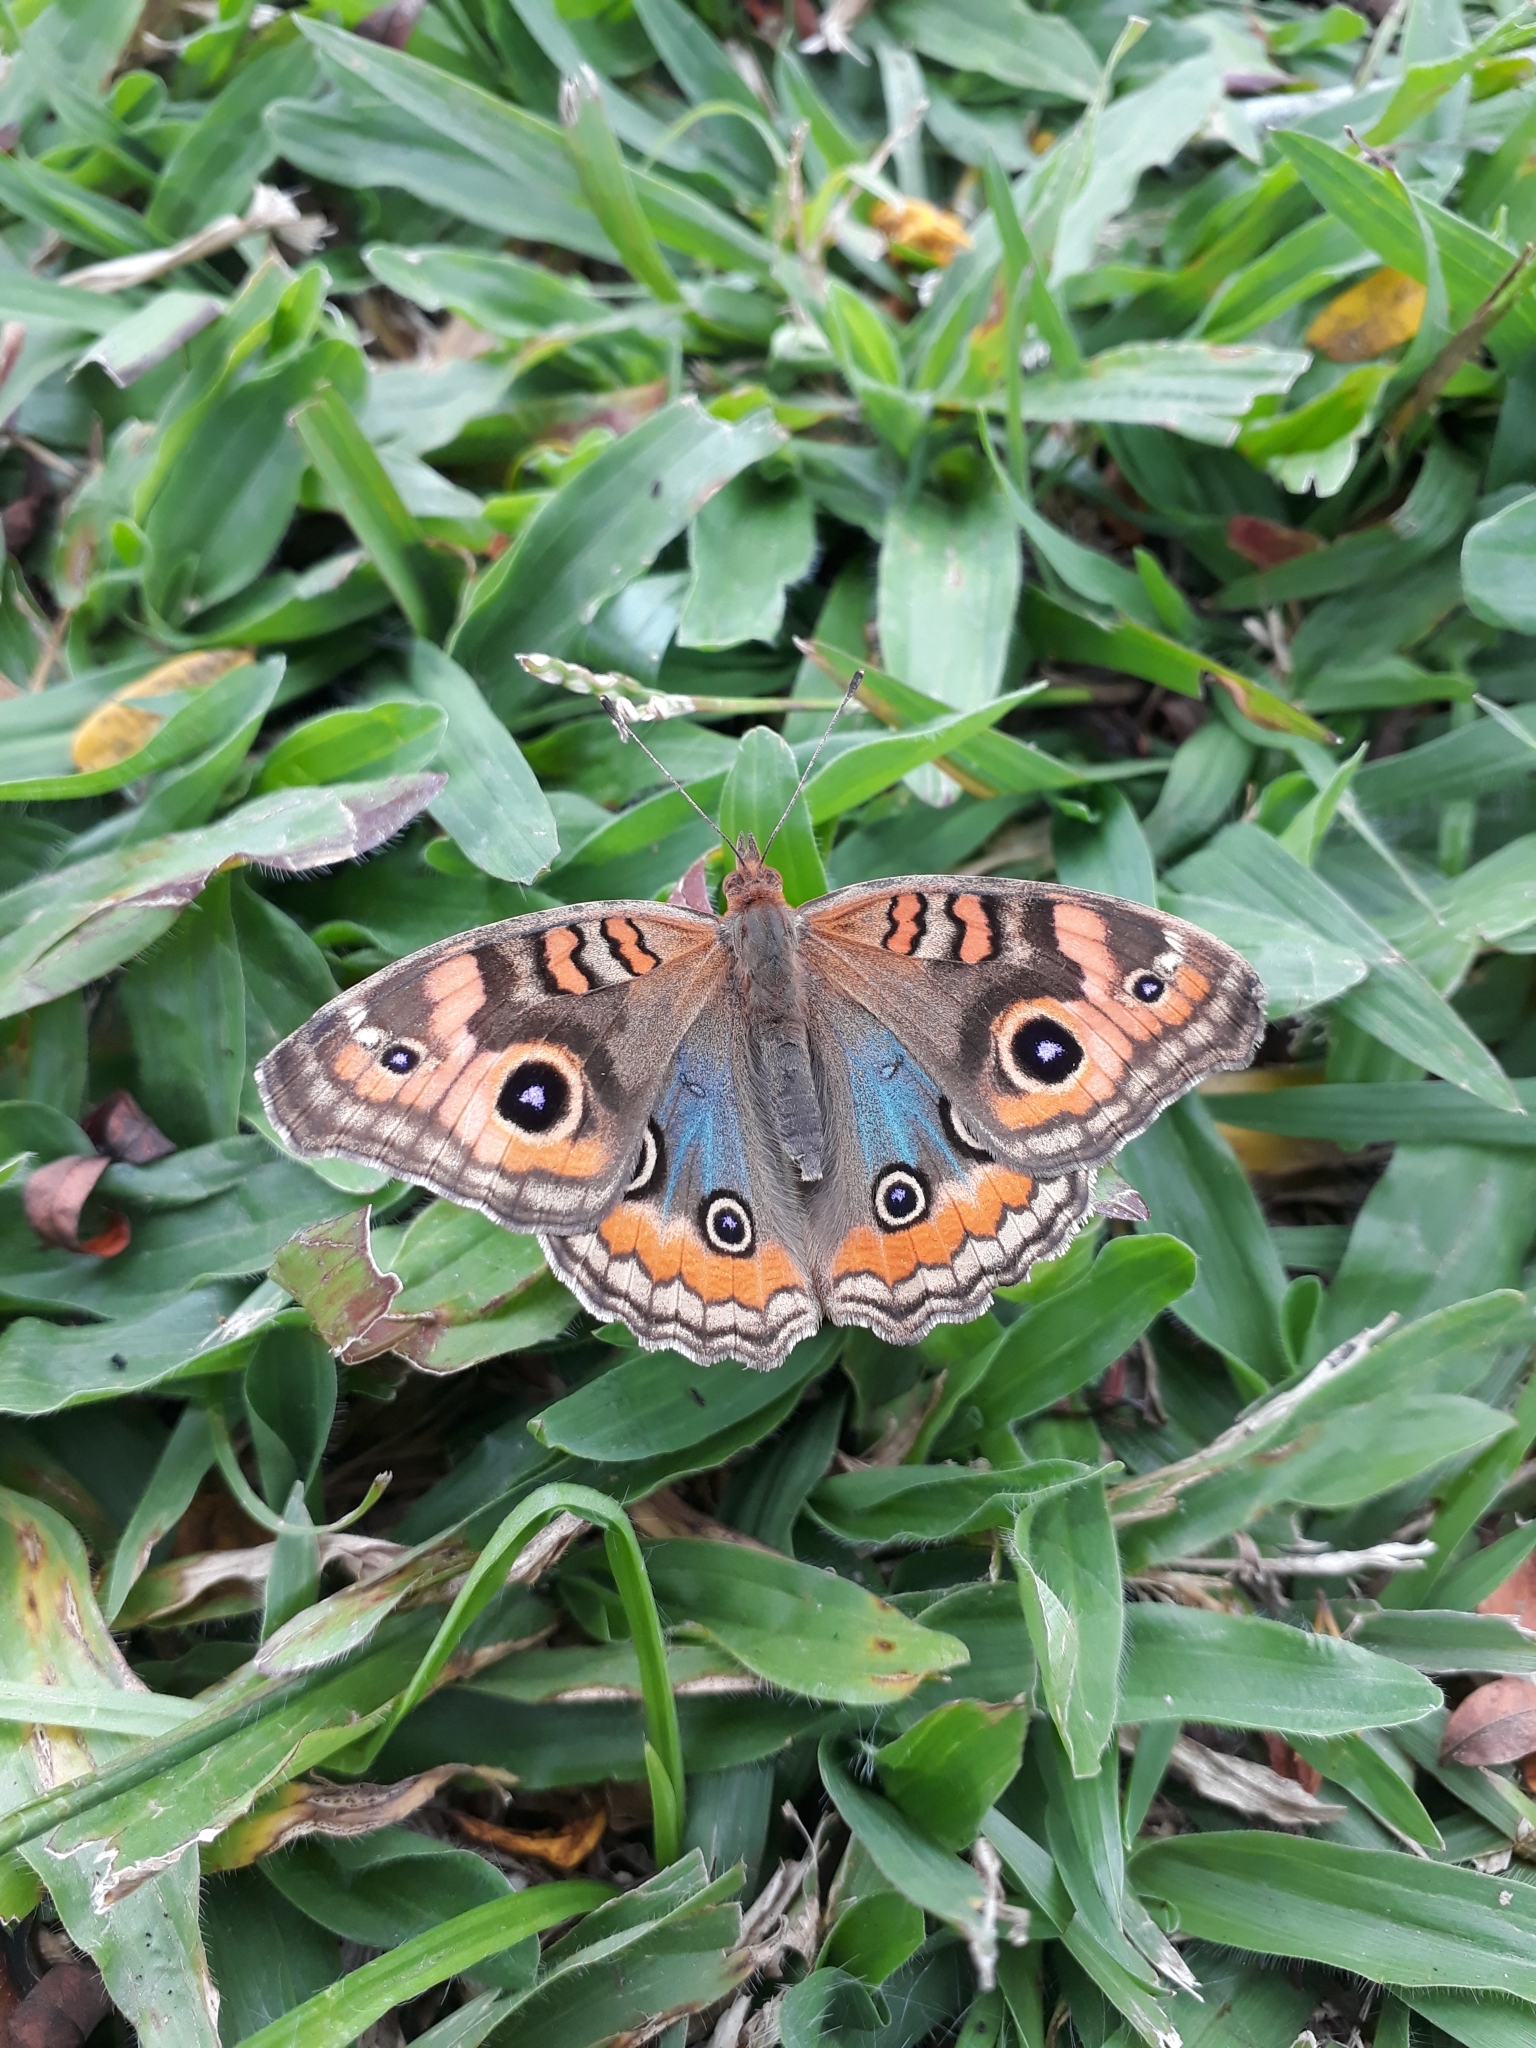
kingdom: Animalia
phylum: Arthropoda
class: Insecta
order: Lepidoptera
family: Nymphalidae
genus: Junonia
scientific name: Junonia evarete
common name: Black mangrove buckeye
